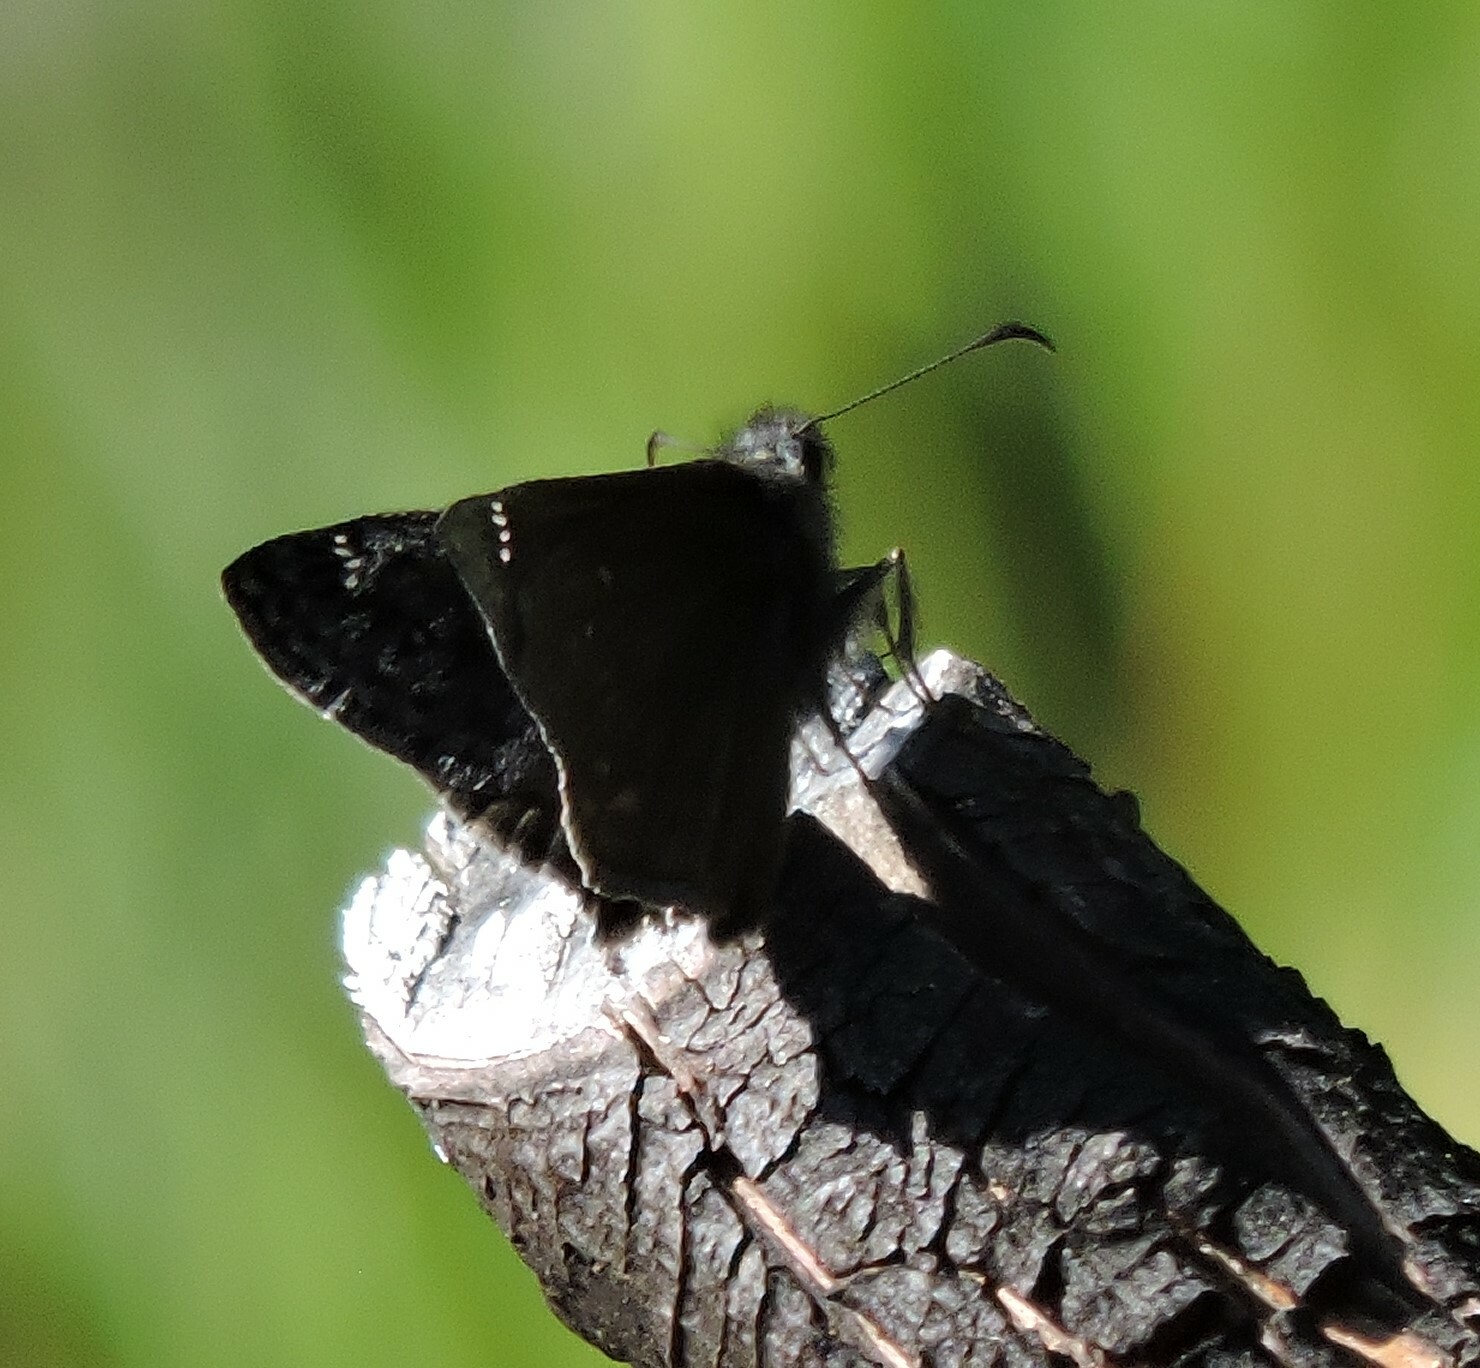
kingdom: Animalia
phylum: Arthropoda
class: Insecta
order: Lepidoptera
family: Hesperiidae
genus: Erynnis
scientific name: Erynnis propertius
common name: Propertius duskywing
